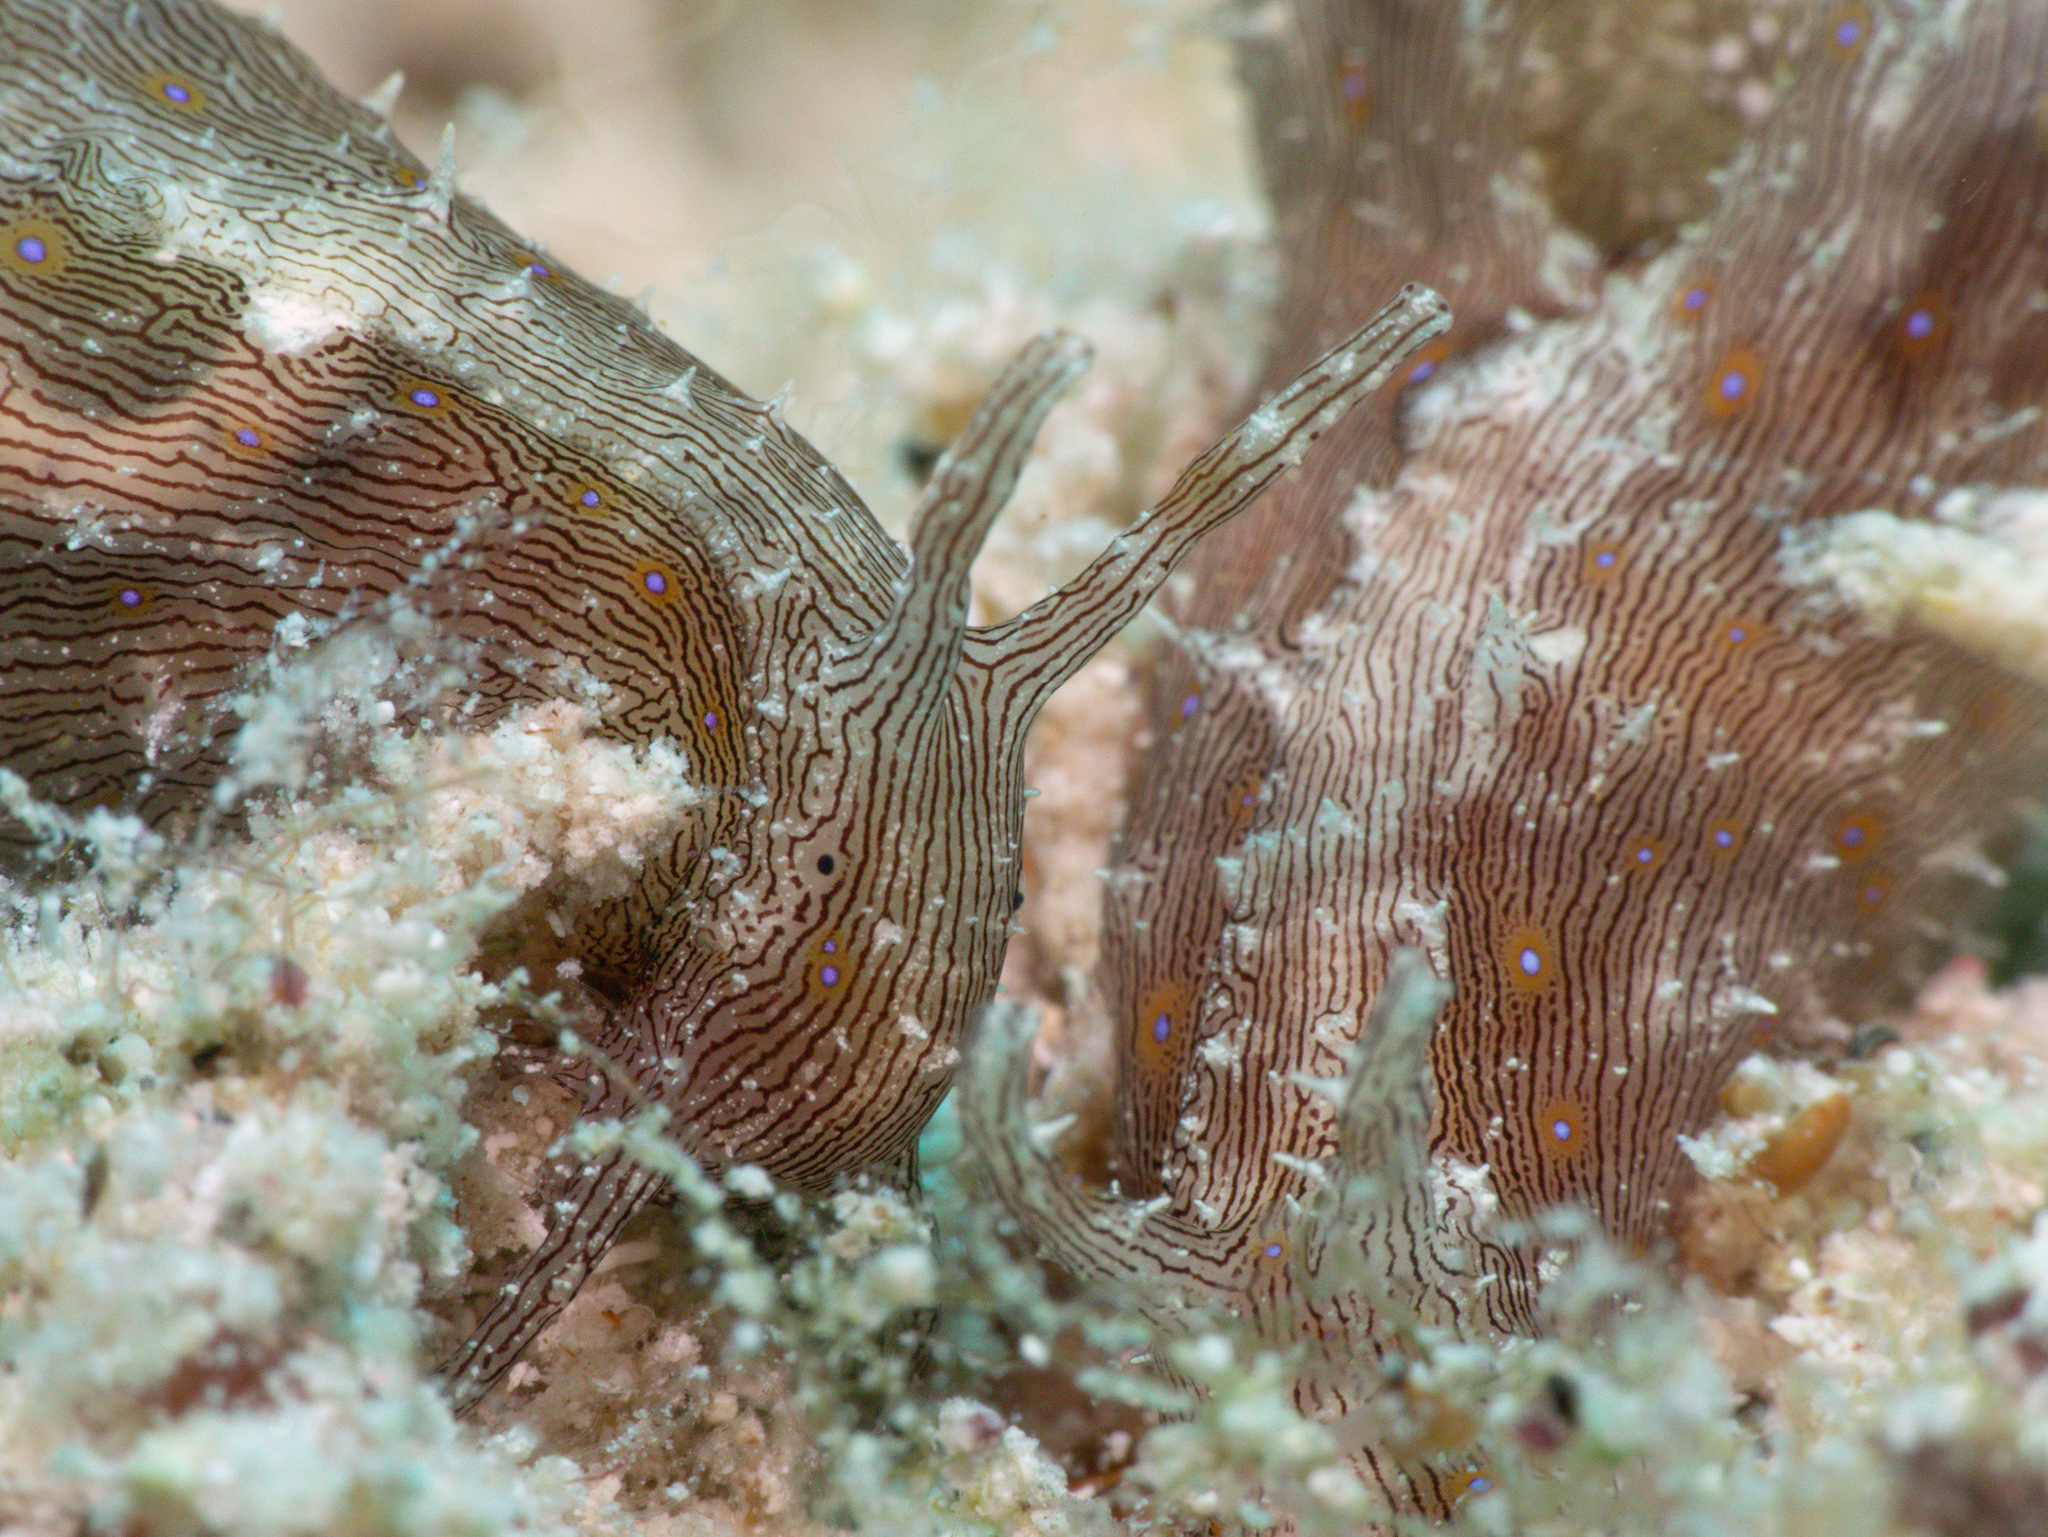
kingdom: Animalia
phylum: Mollusca
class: Gastropoda
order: Aplysiida
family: Aplysiidae
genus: Stylocheilus
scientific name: Stylocheilus polyomma
